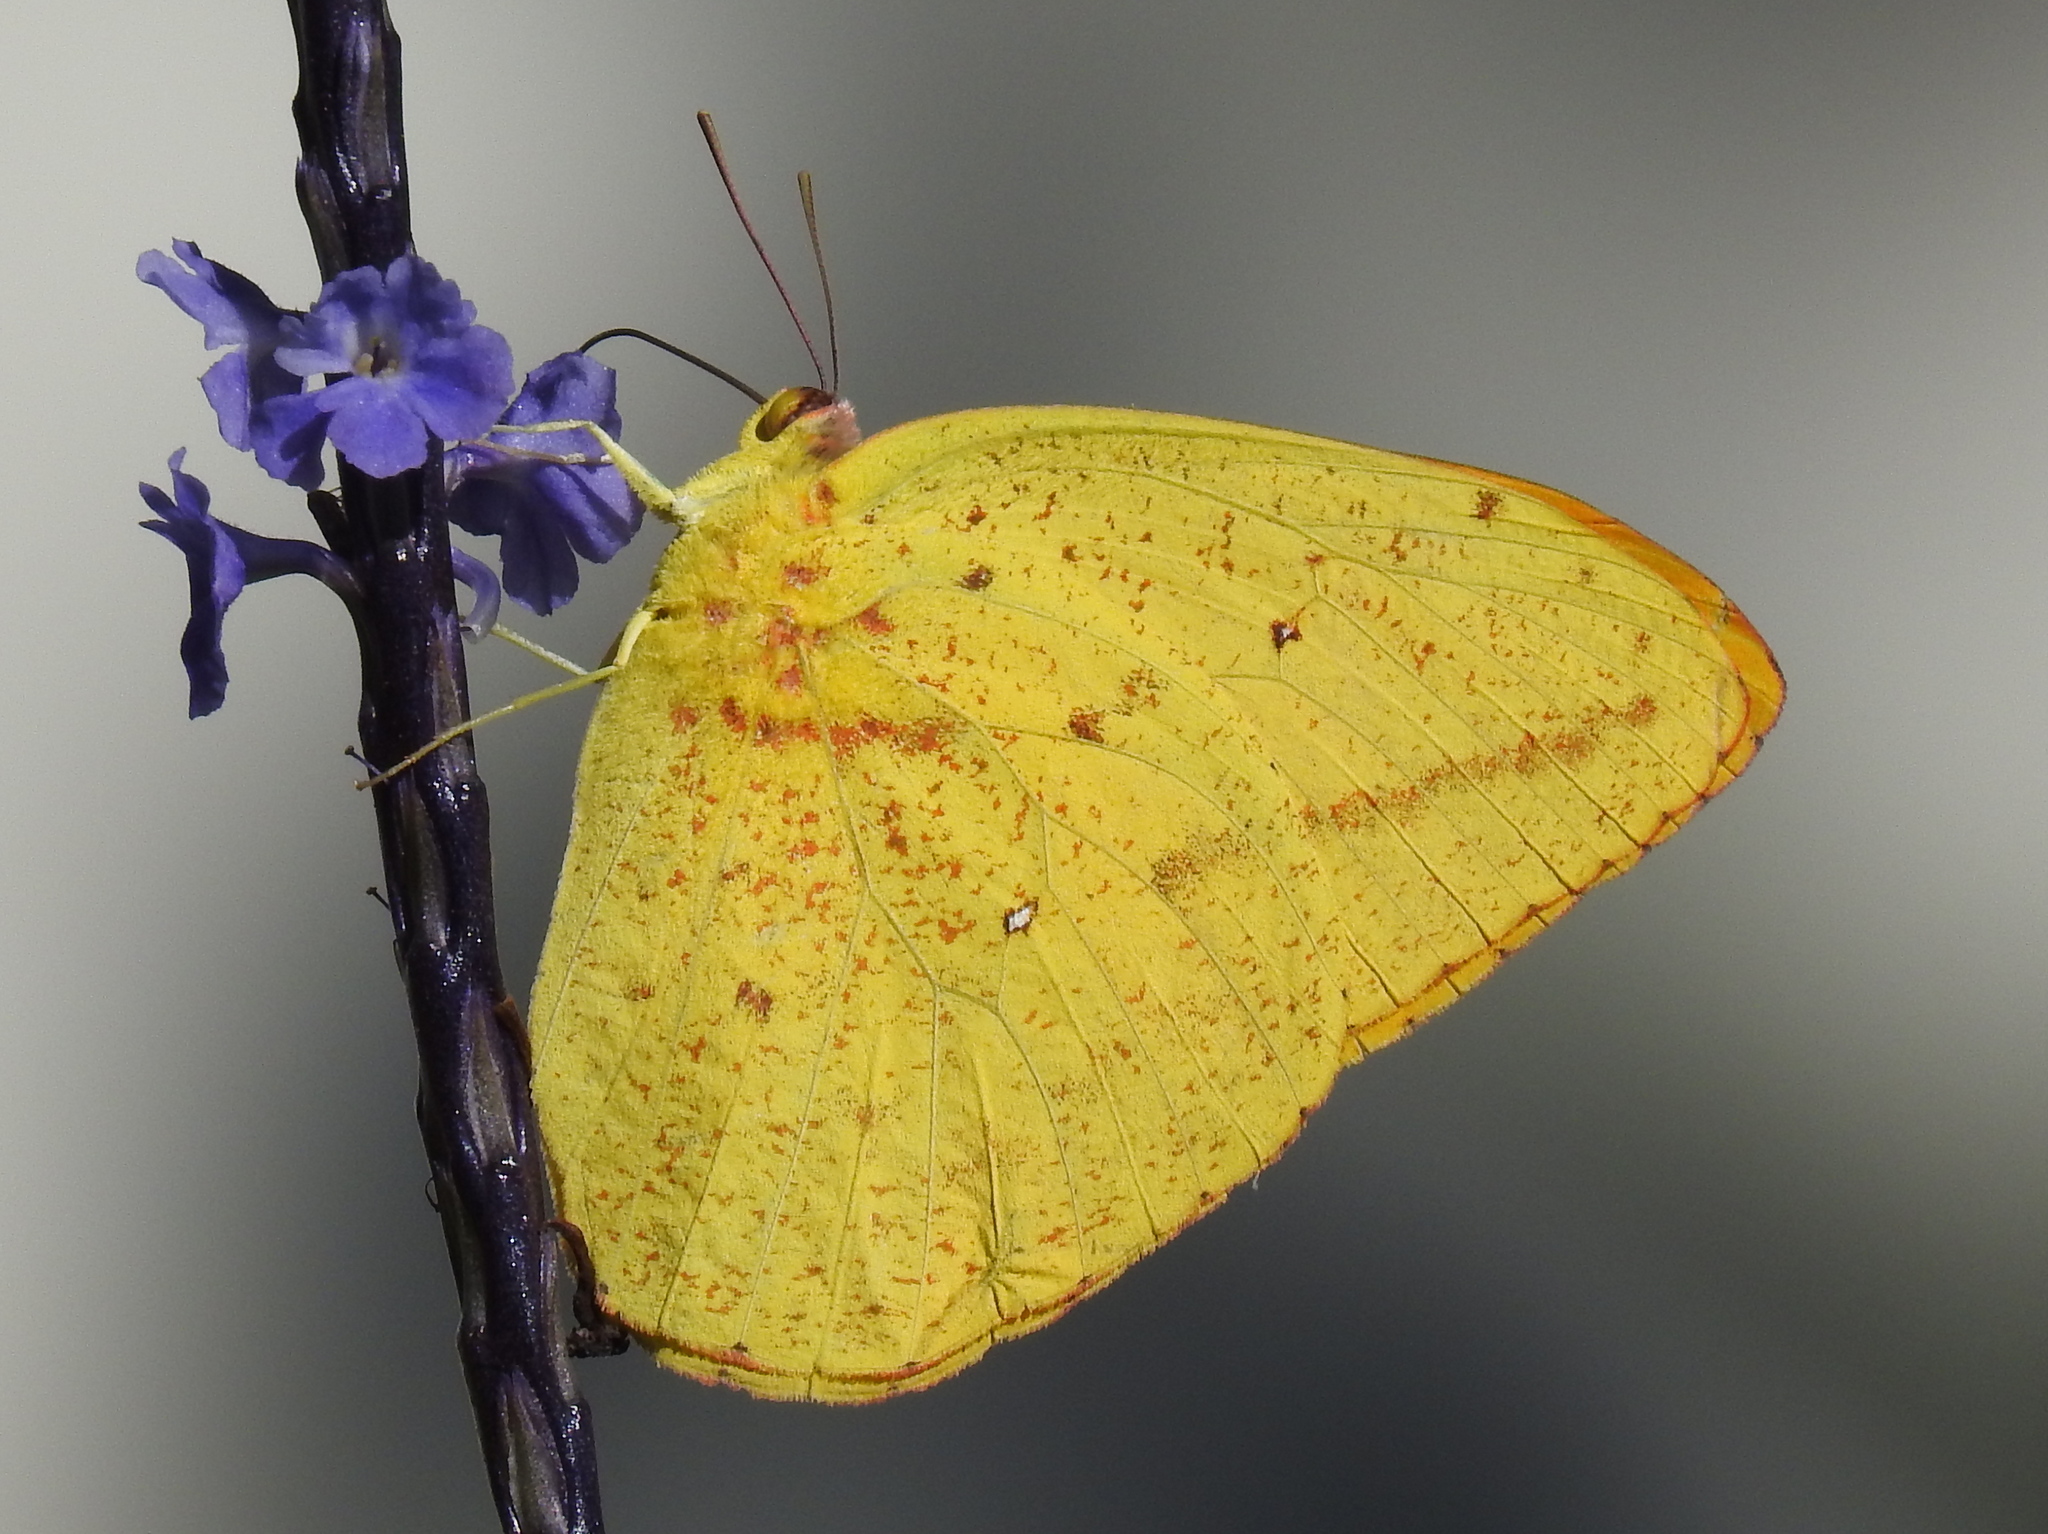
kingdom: Animalia
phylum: Arthropoda
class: Insecta
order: Lepidoptera
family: Pieridae
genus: Phoebis
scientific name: Phoebis agarithe
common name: Large orange sulphur
